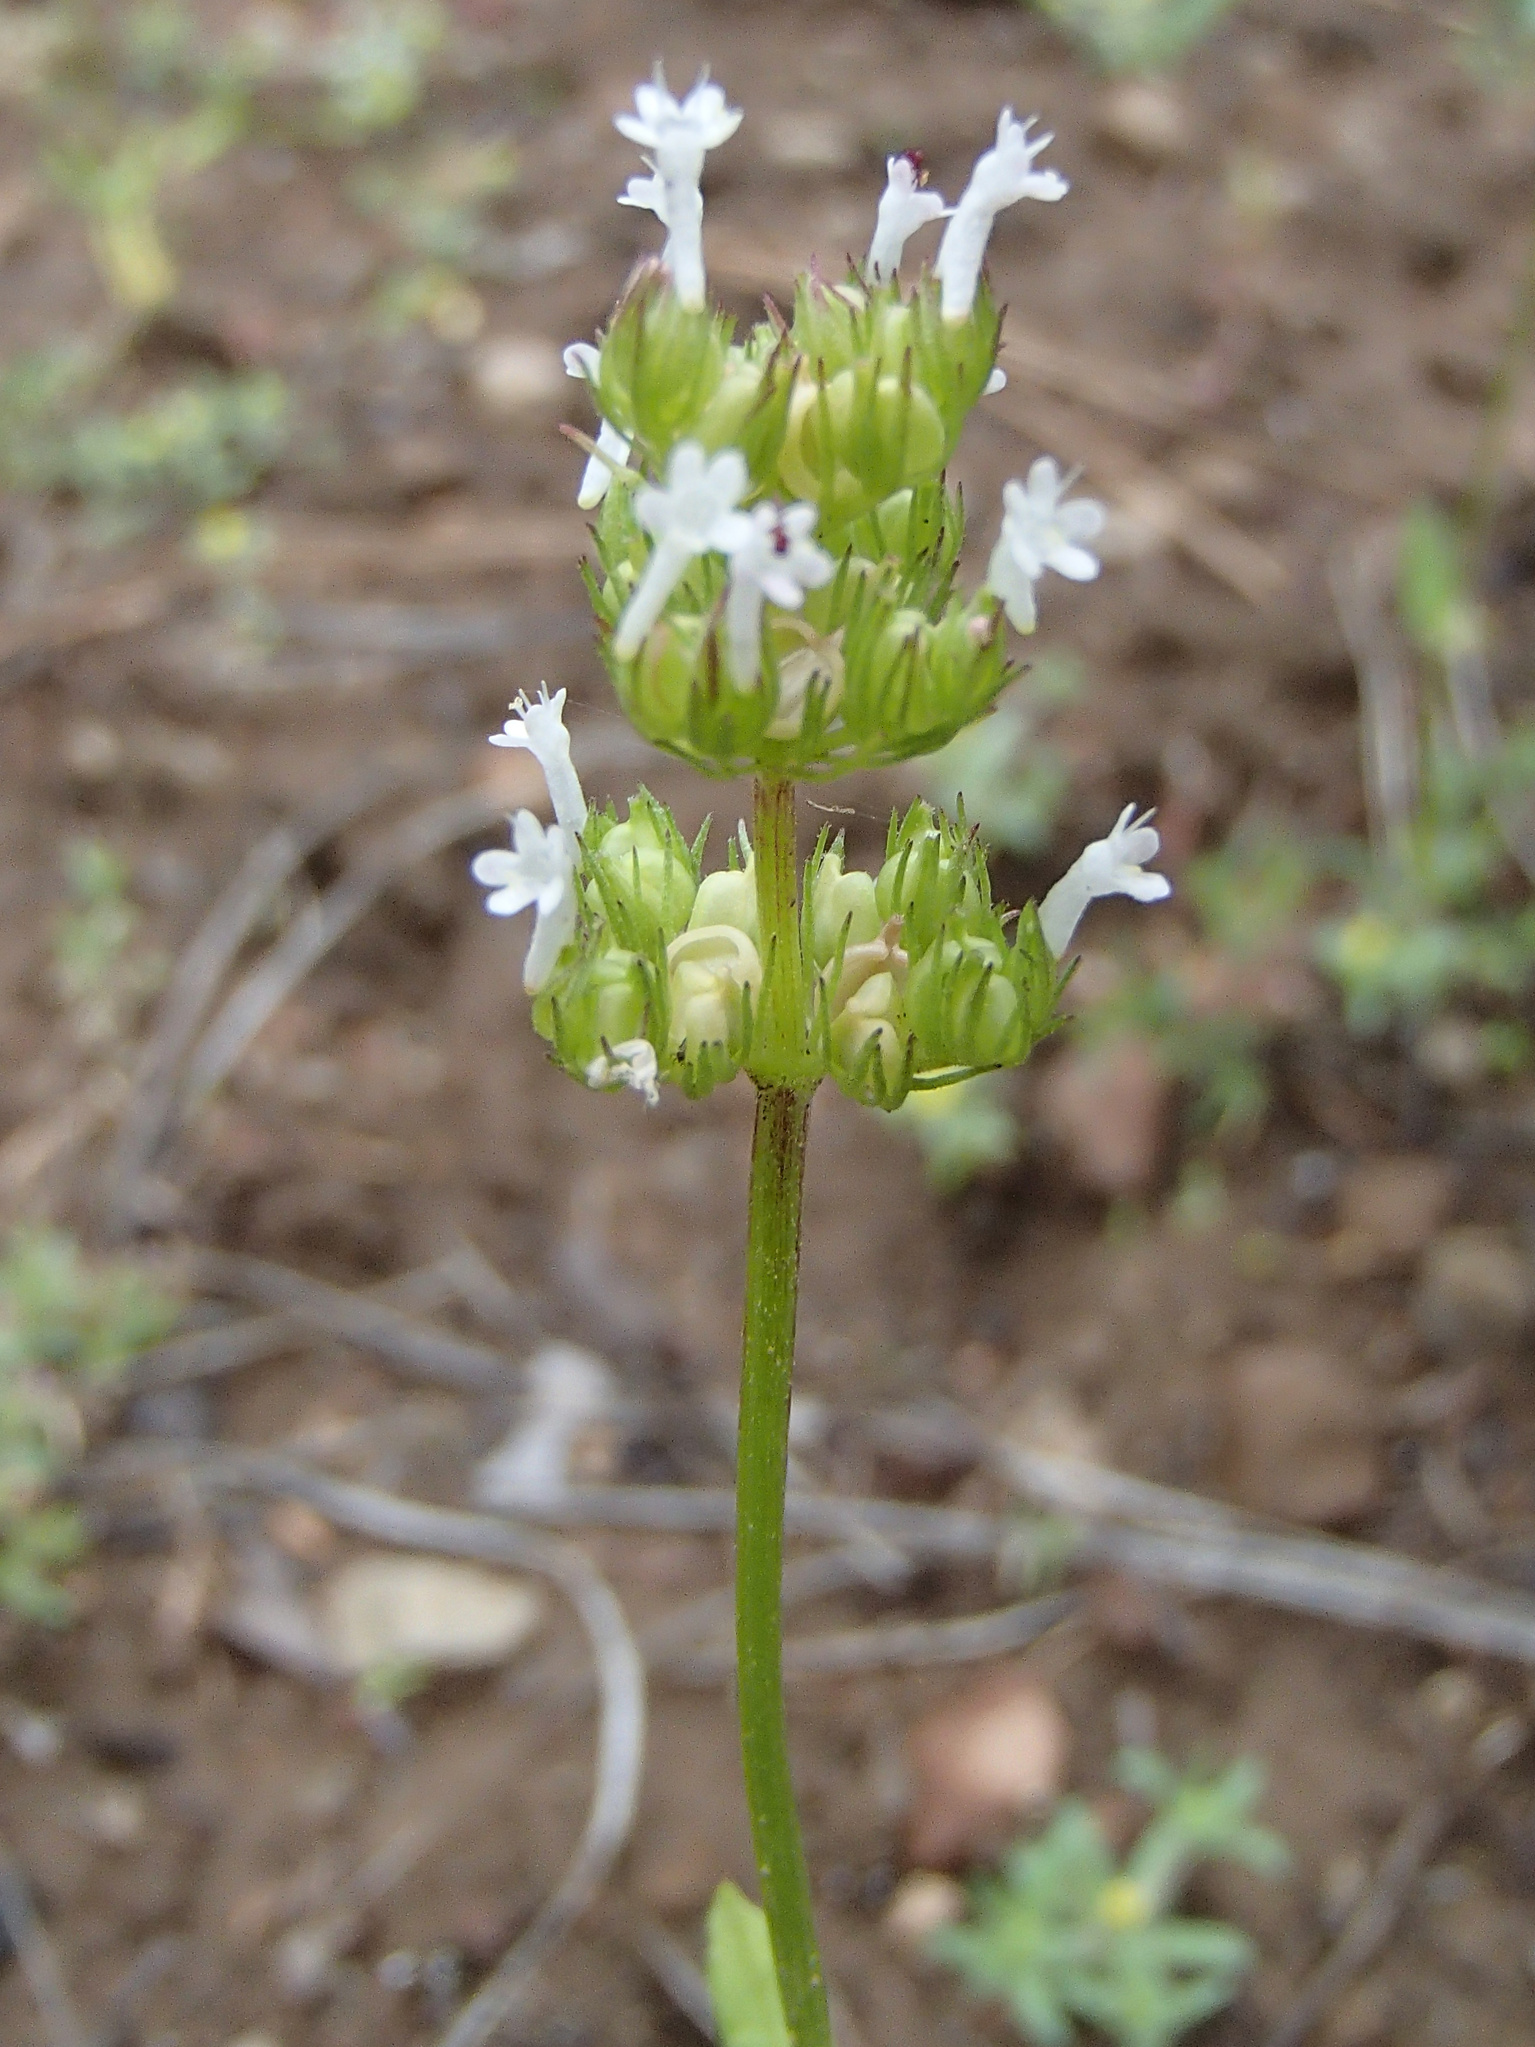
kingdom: Plantae
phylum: Tracheophyta
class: Magnoliopsida
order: Dipsacales
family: Caprifoliaceae
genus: Plectritis
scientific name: Plectritis macroptera
